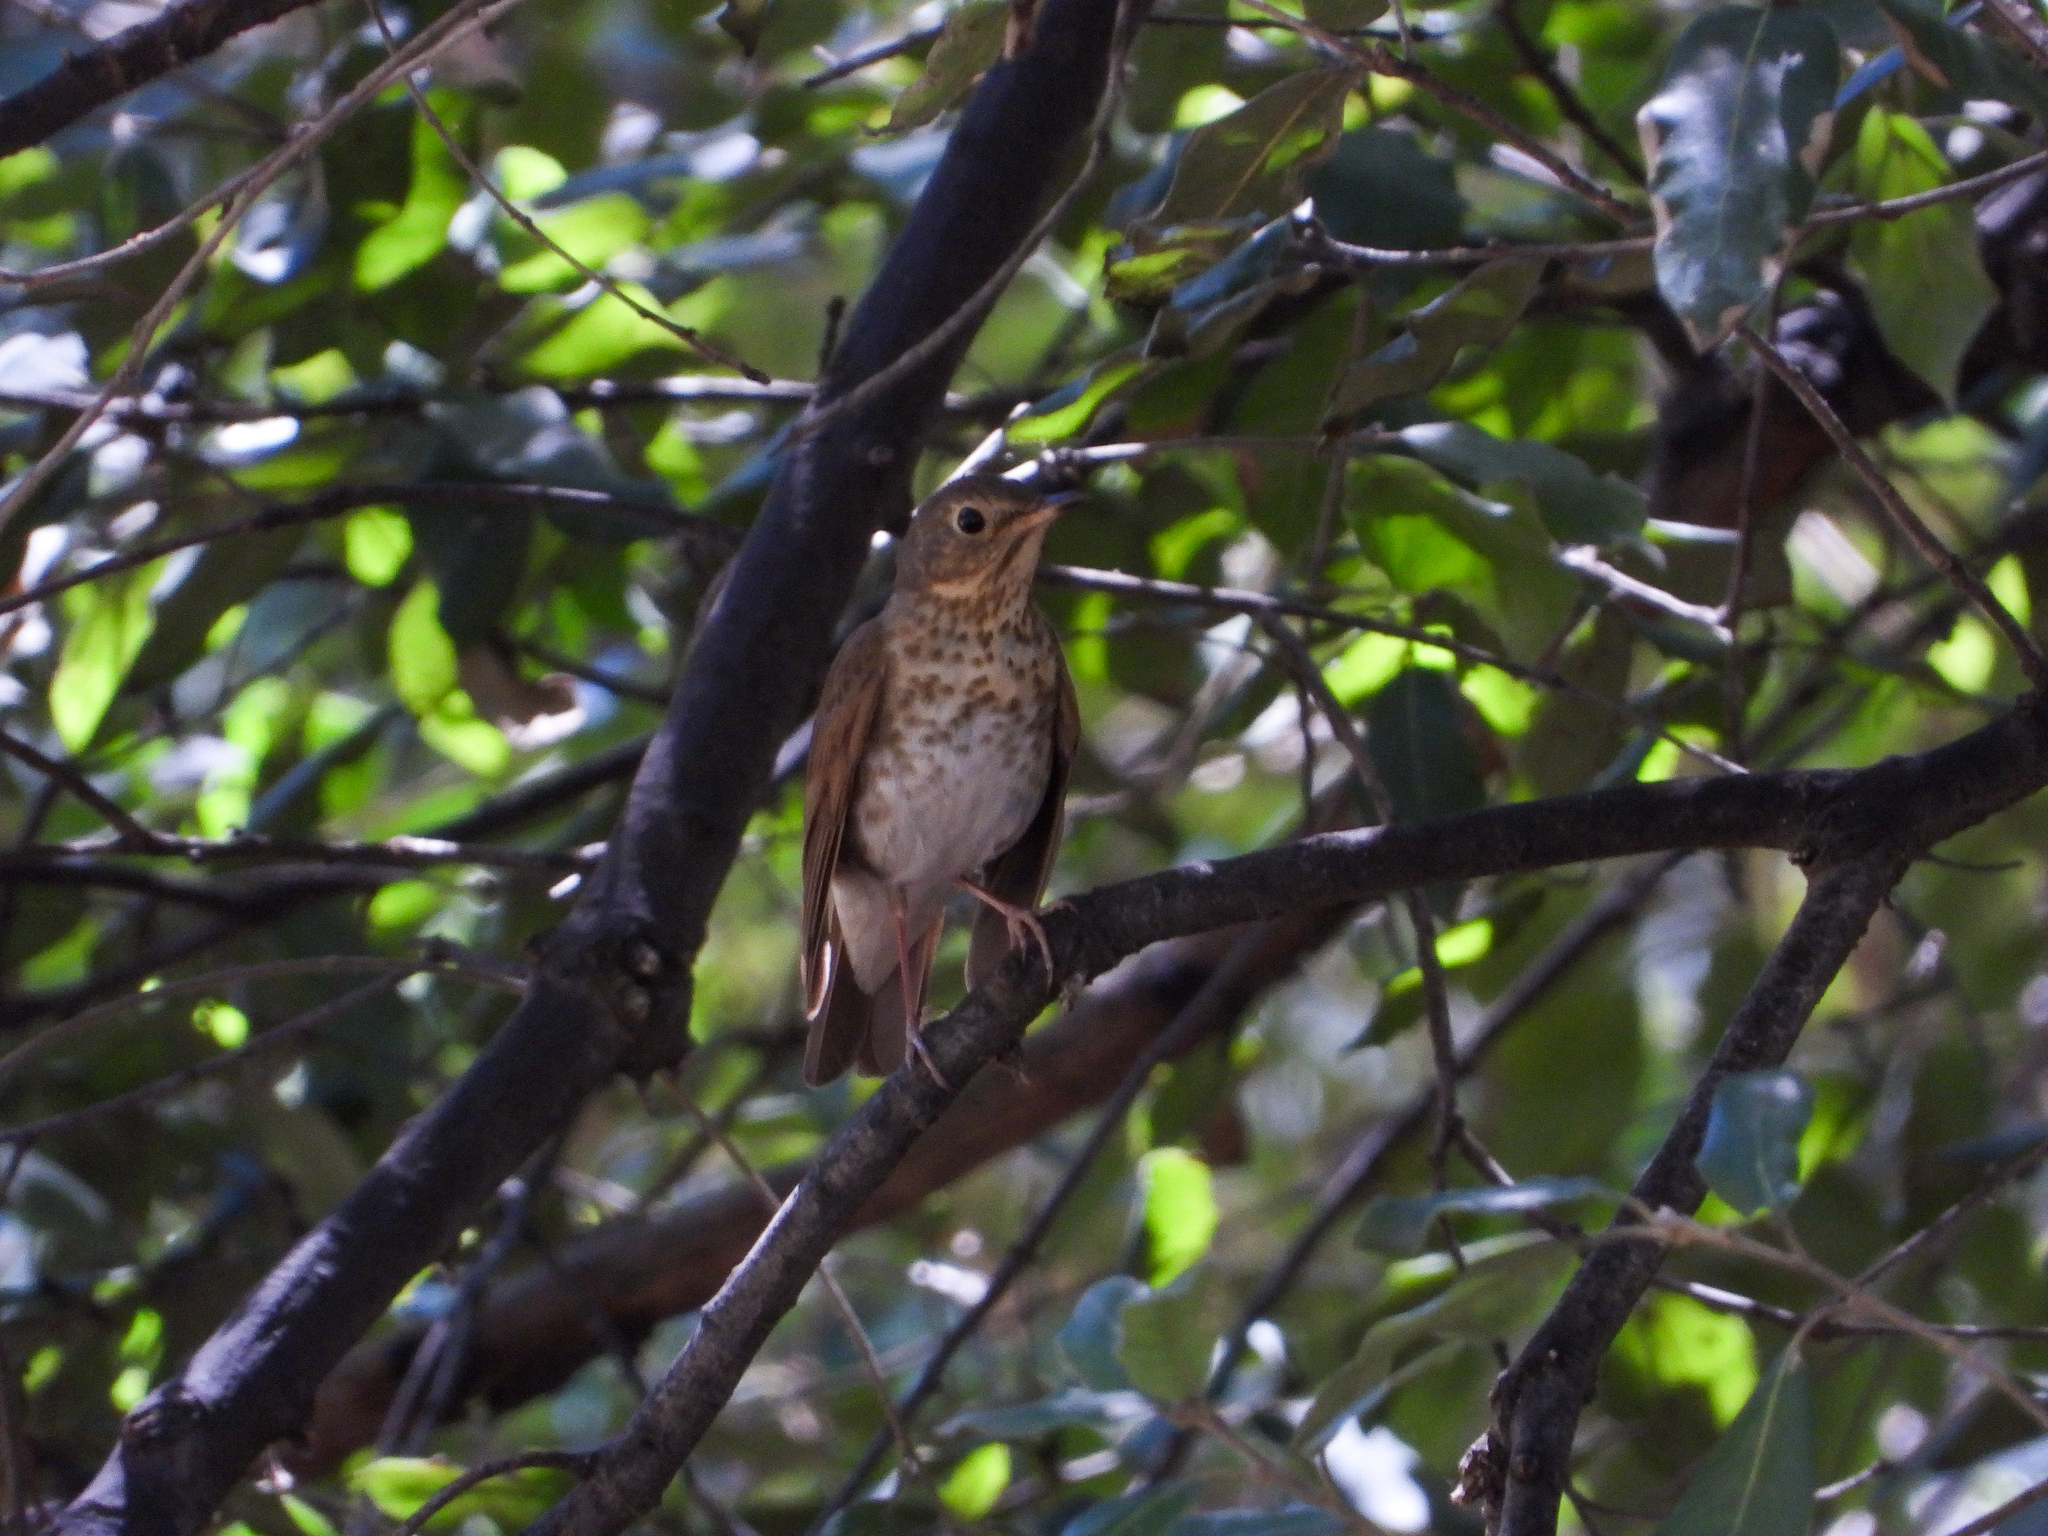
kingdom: Animalia
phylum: Chordata
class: Aves
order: Passeriformes
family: Turdidae
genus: Catharus
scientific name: Catharus ustulatus
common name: Swainson's thrush
